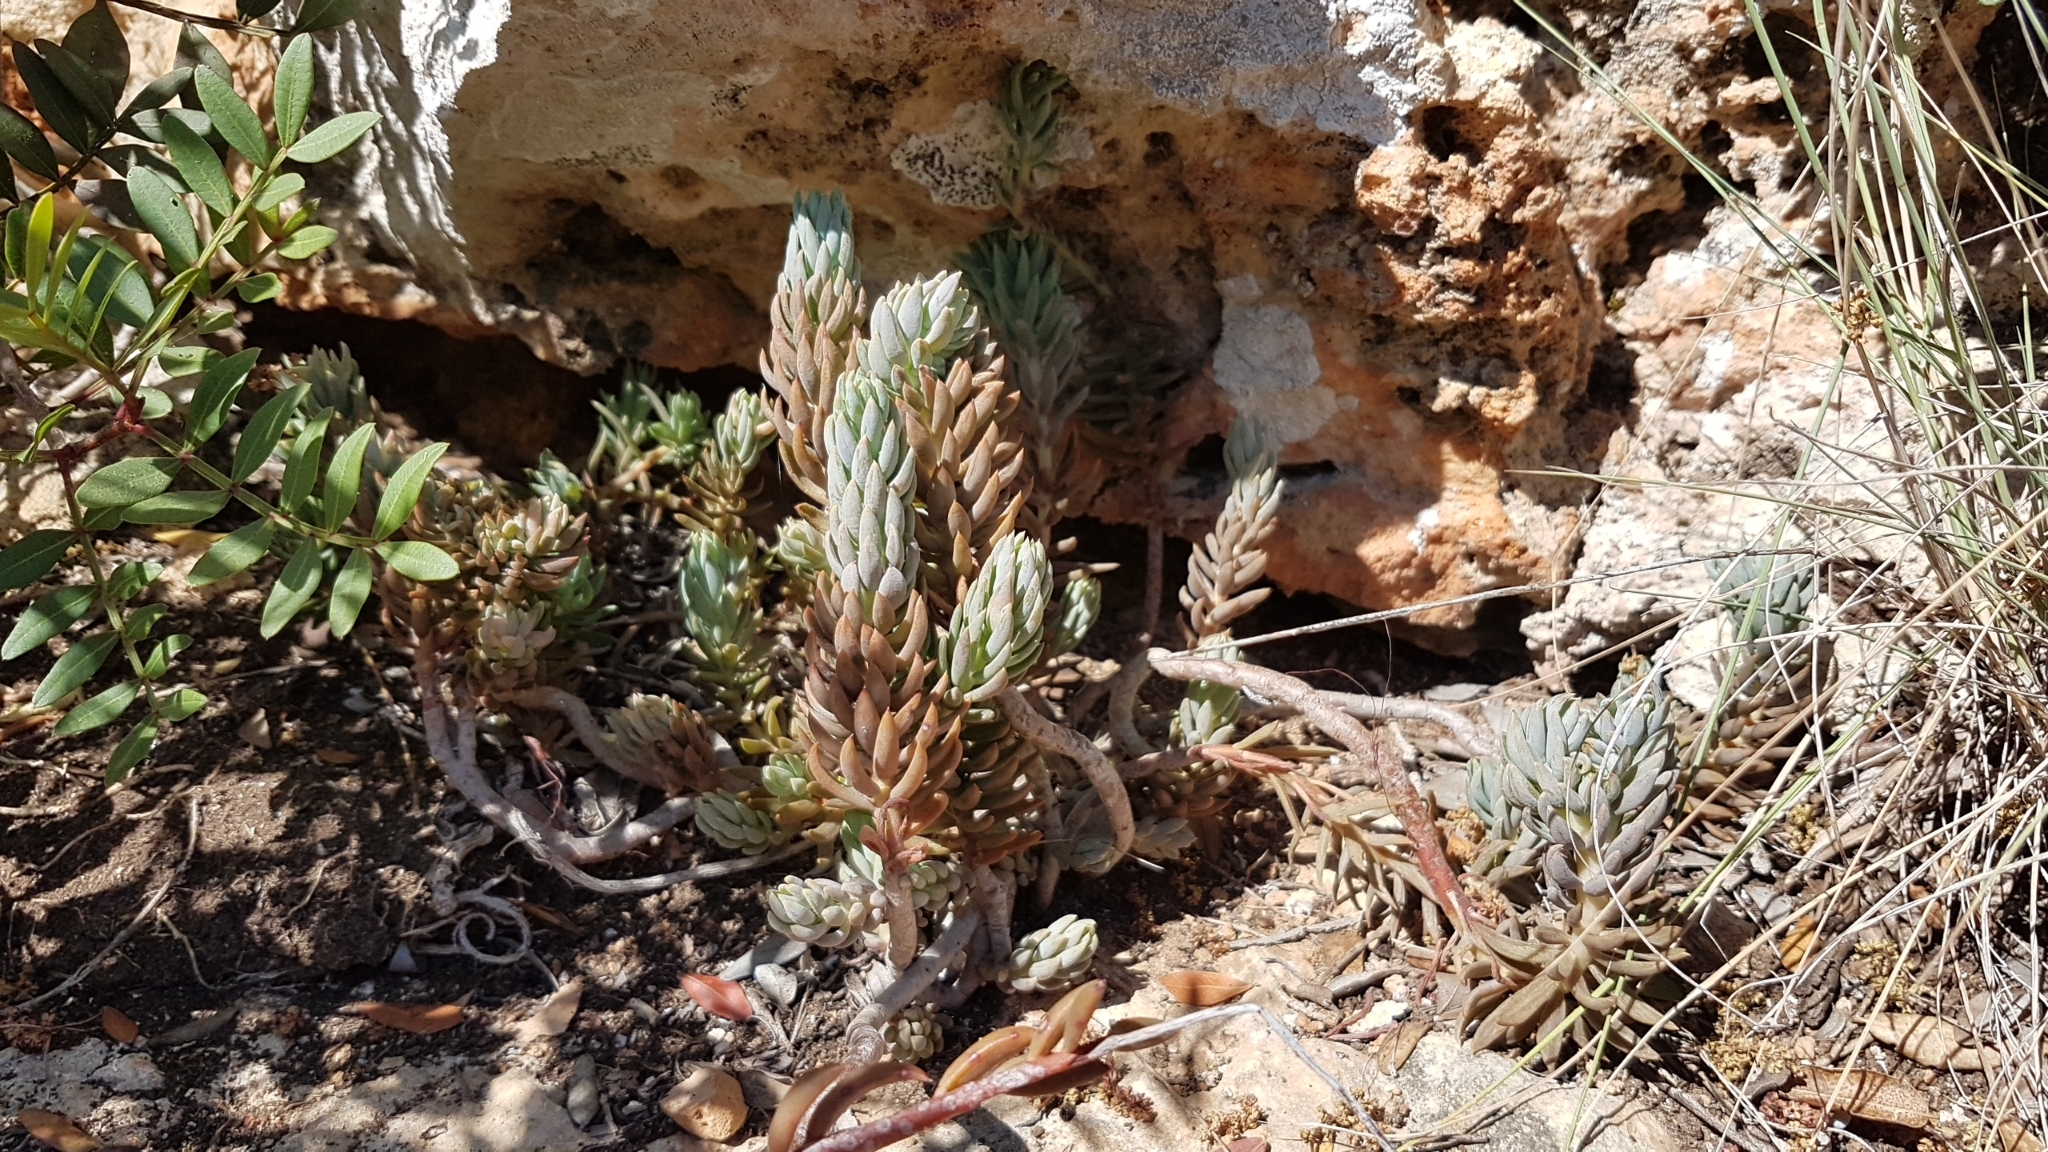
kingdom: Plantae
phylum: Tracheophyta
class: Magnoliopsida
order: Saxifragales
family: Crassulaceae
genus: Petrosedum
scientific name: Petrosedum sediforme
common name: Pale stonecrop
